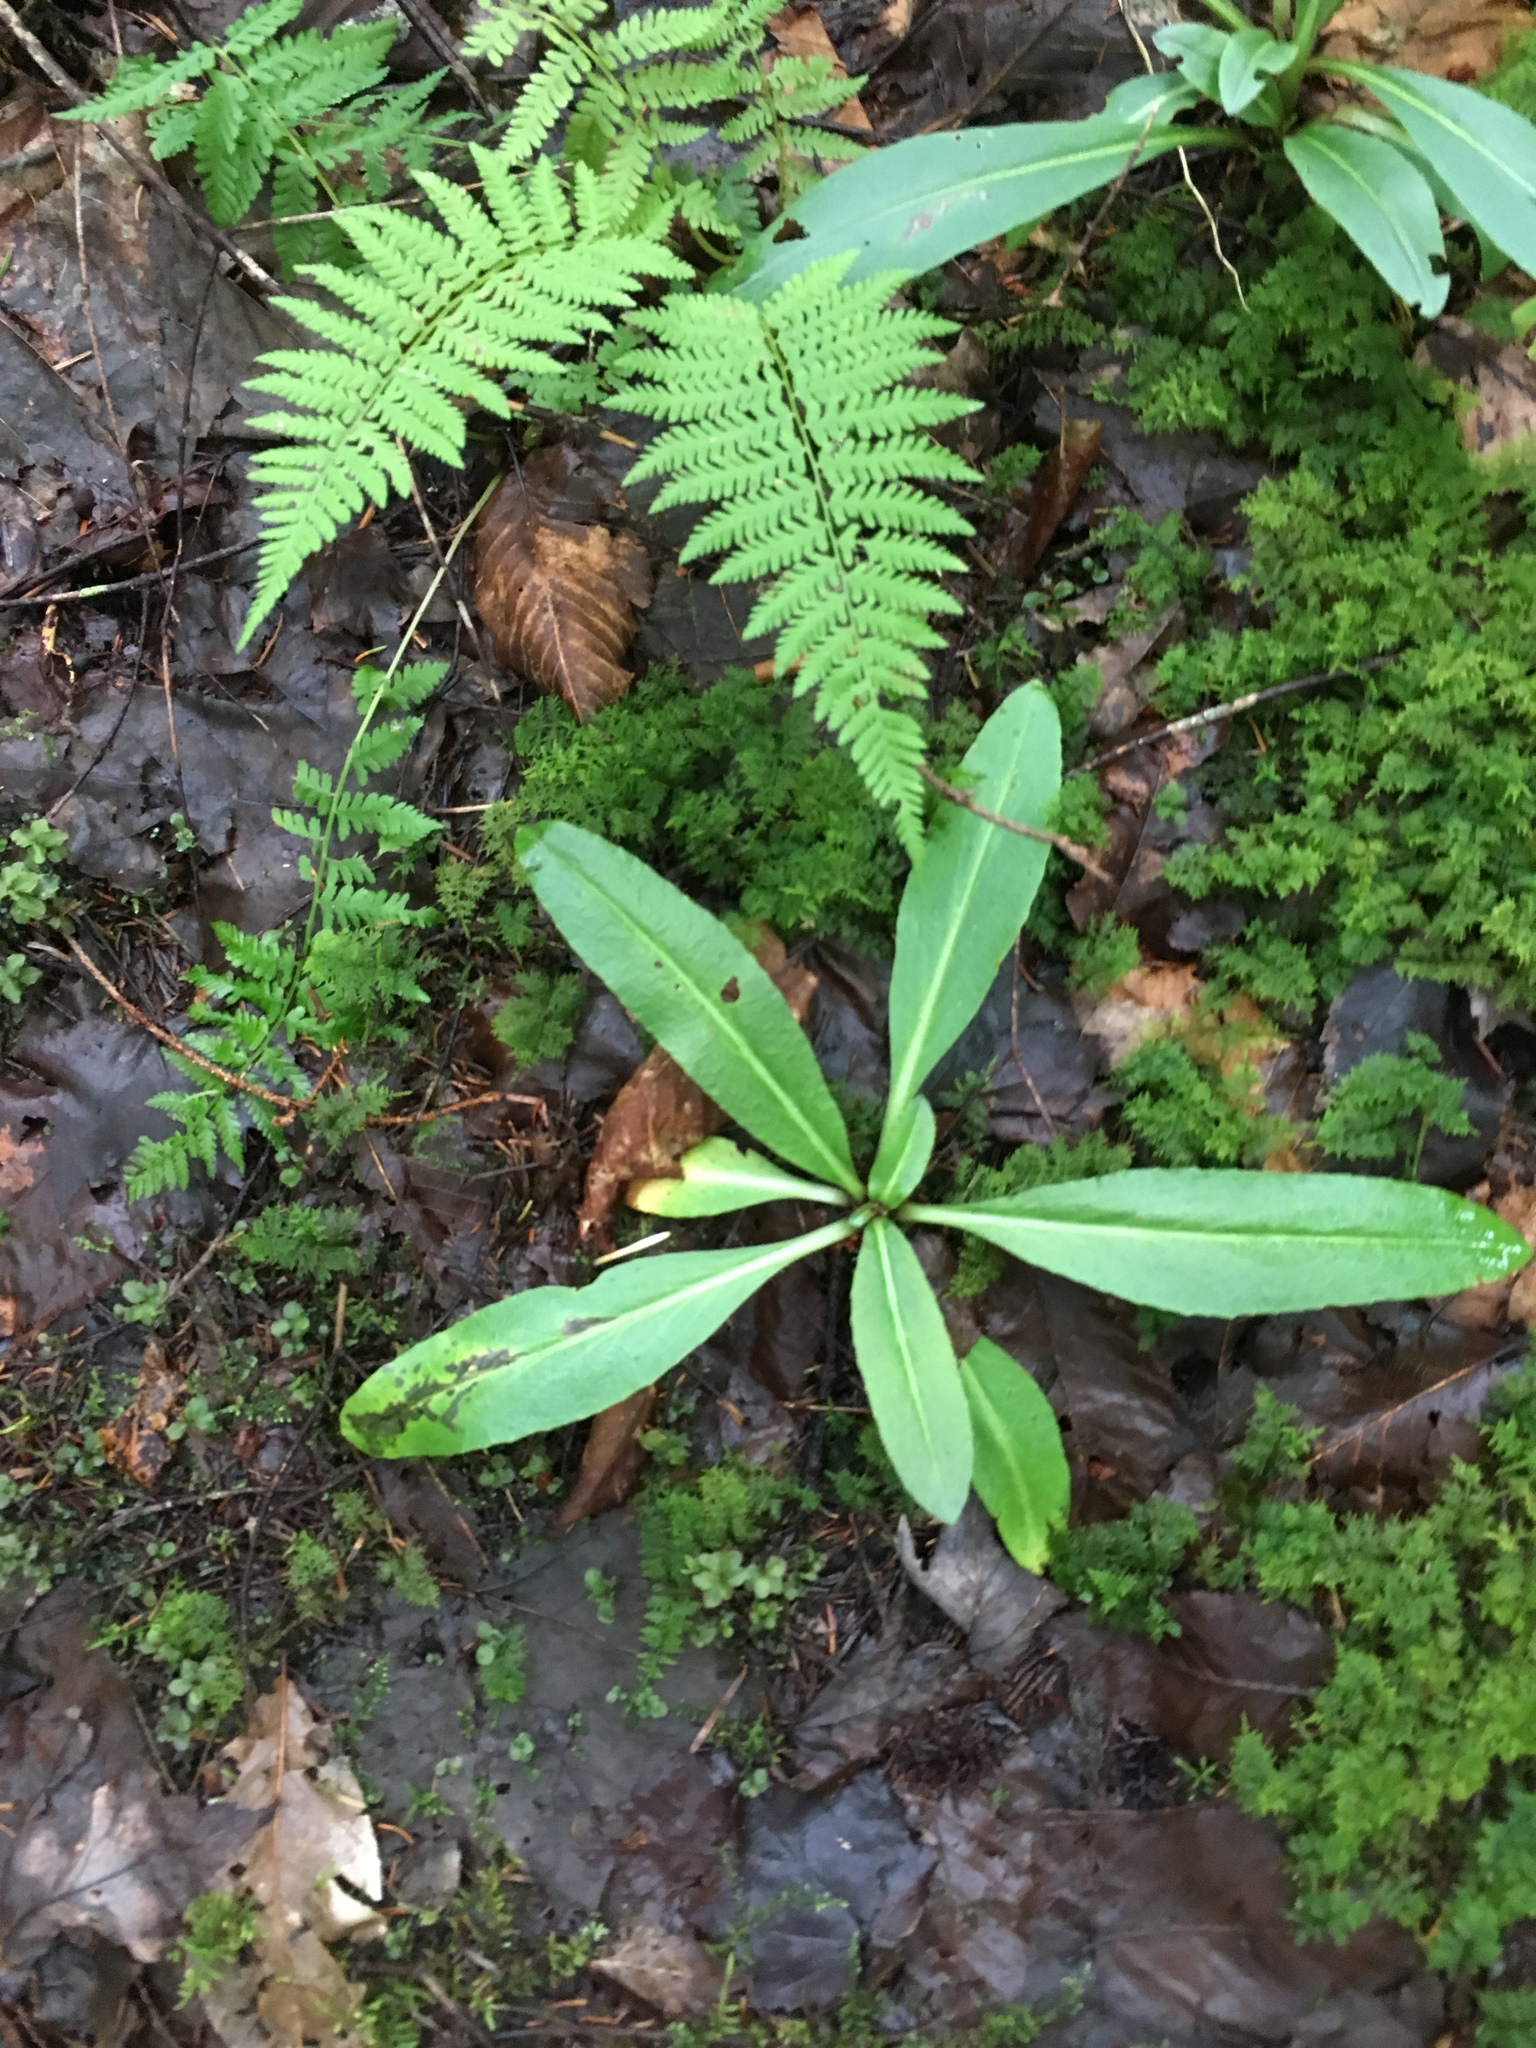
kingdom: Plantae
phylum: Tracheophyta
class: Magnoliopsida
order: Saxifragales
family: Saxifragaceae
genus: Micranthes
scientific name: Micranthes pensylvanica
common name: Marsh saxifrage
